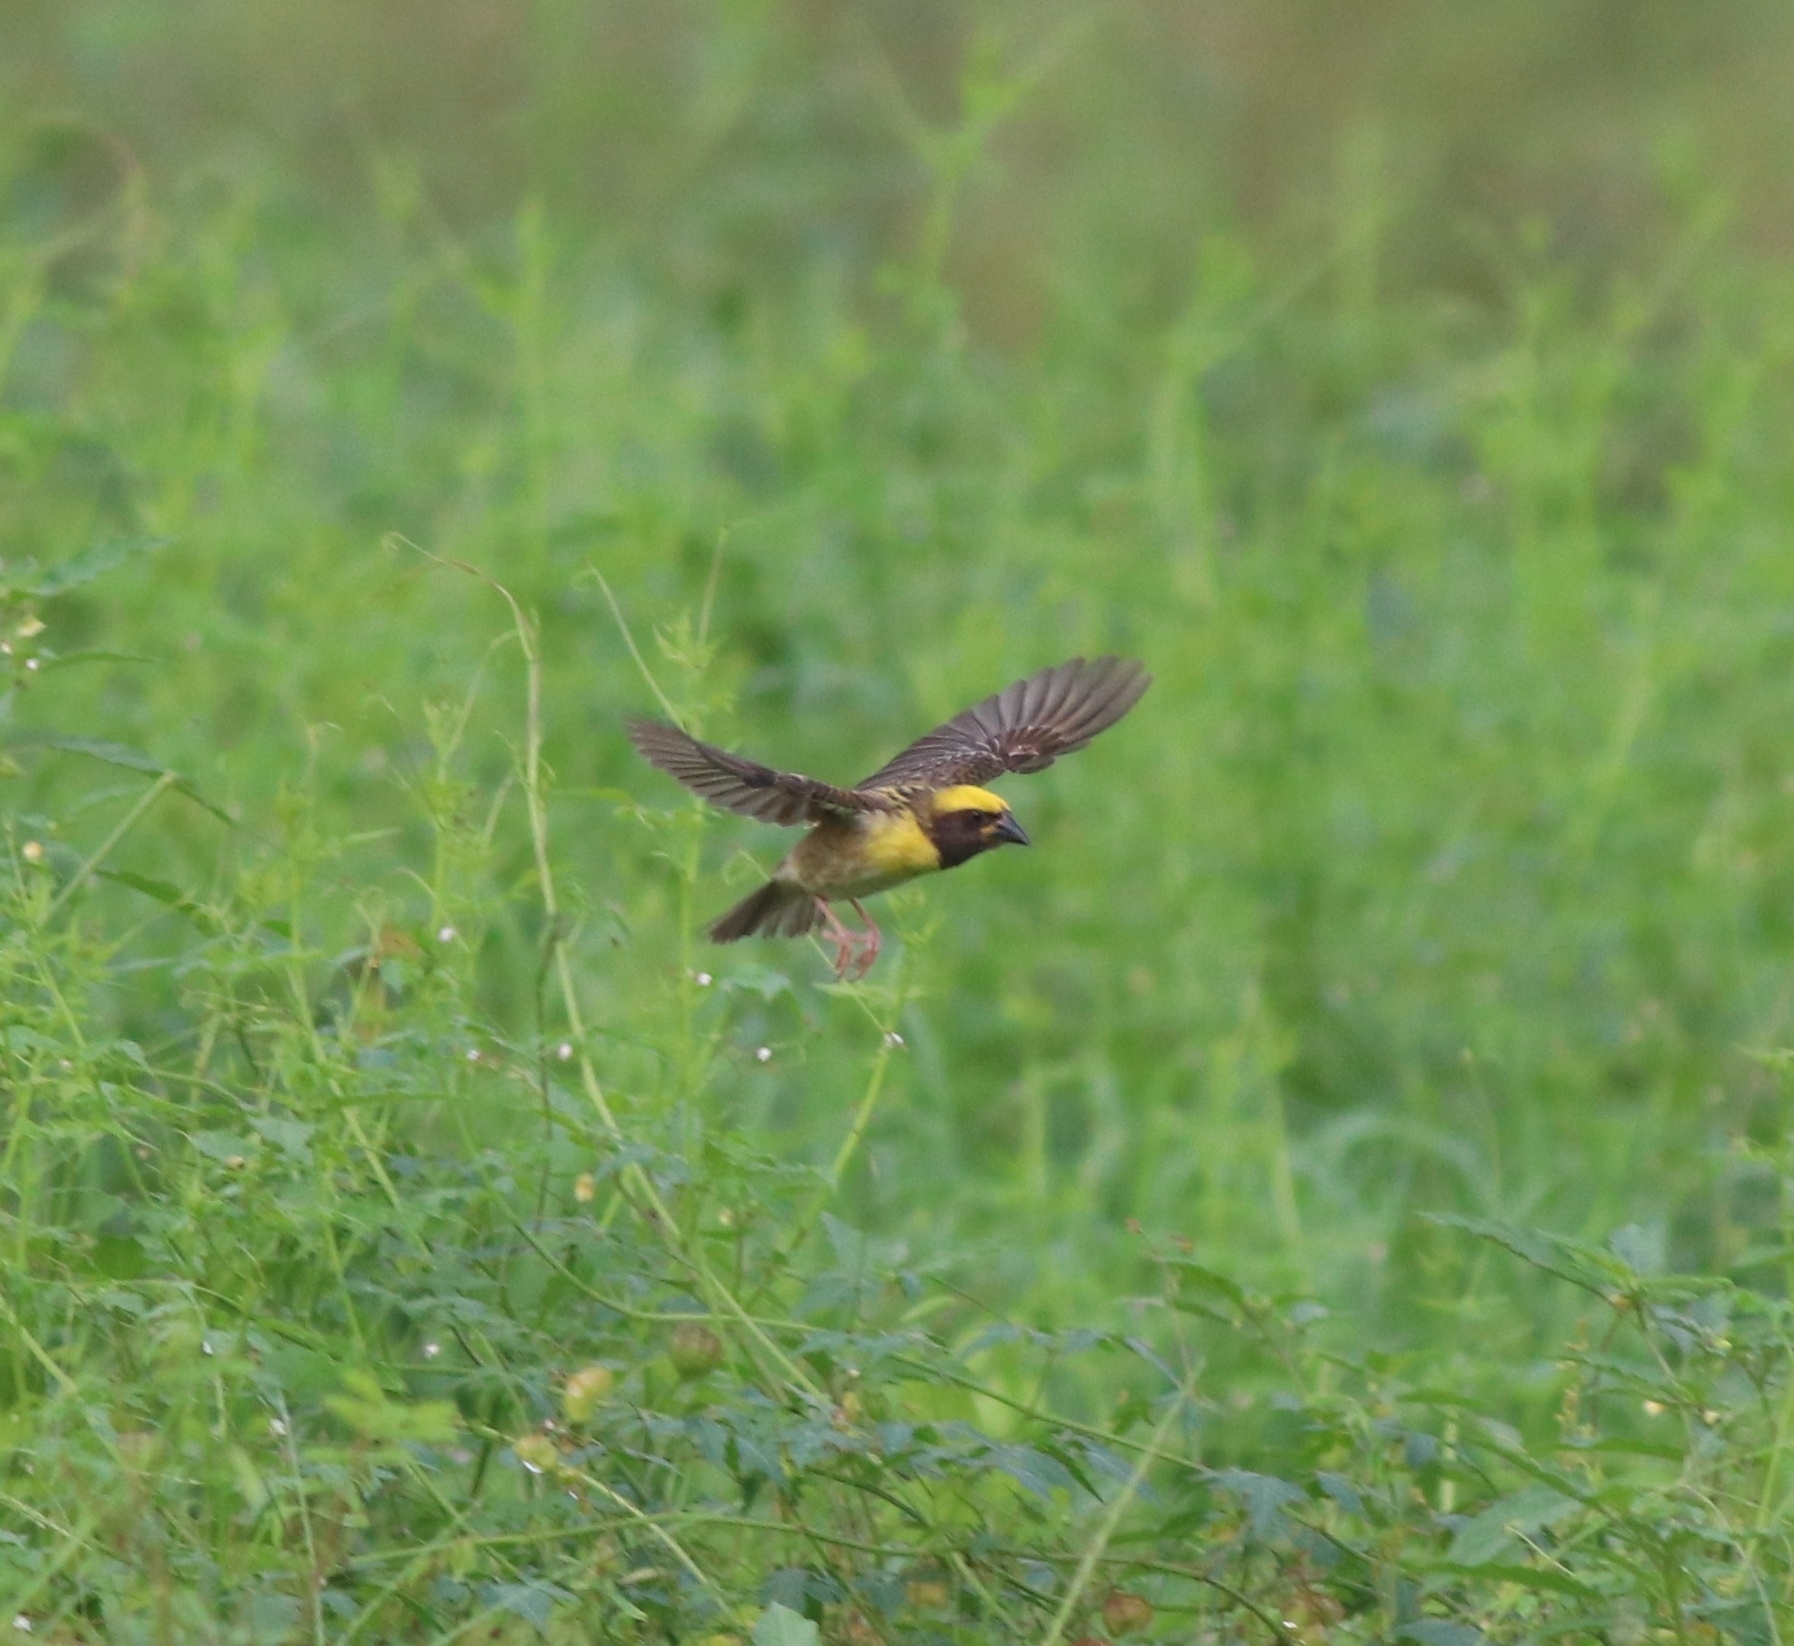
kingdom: Animalia
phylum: Chordata
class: Aves
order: Passeriformes
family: Ploceidae
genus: Ploceus
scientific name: Ploceus philippinus
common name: Baya weaver
